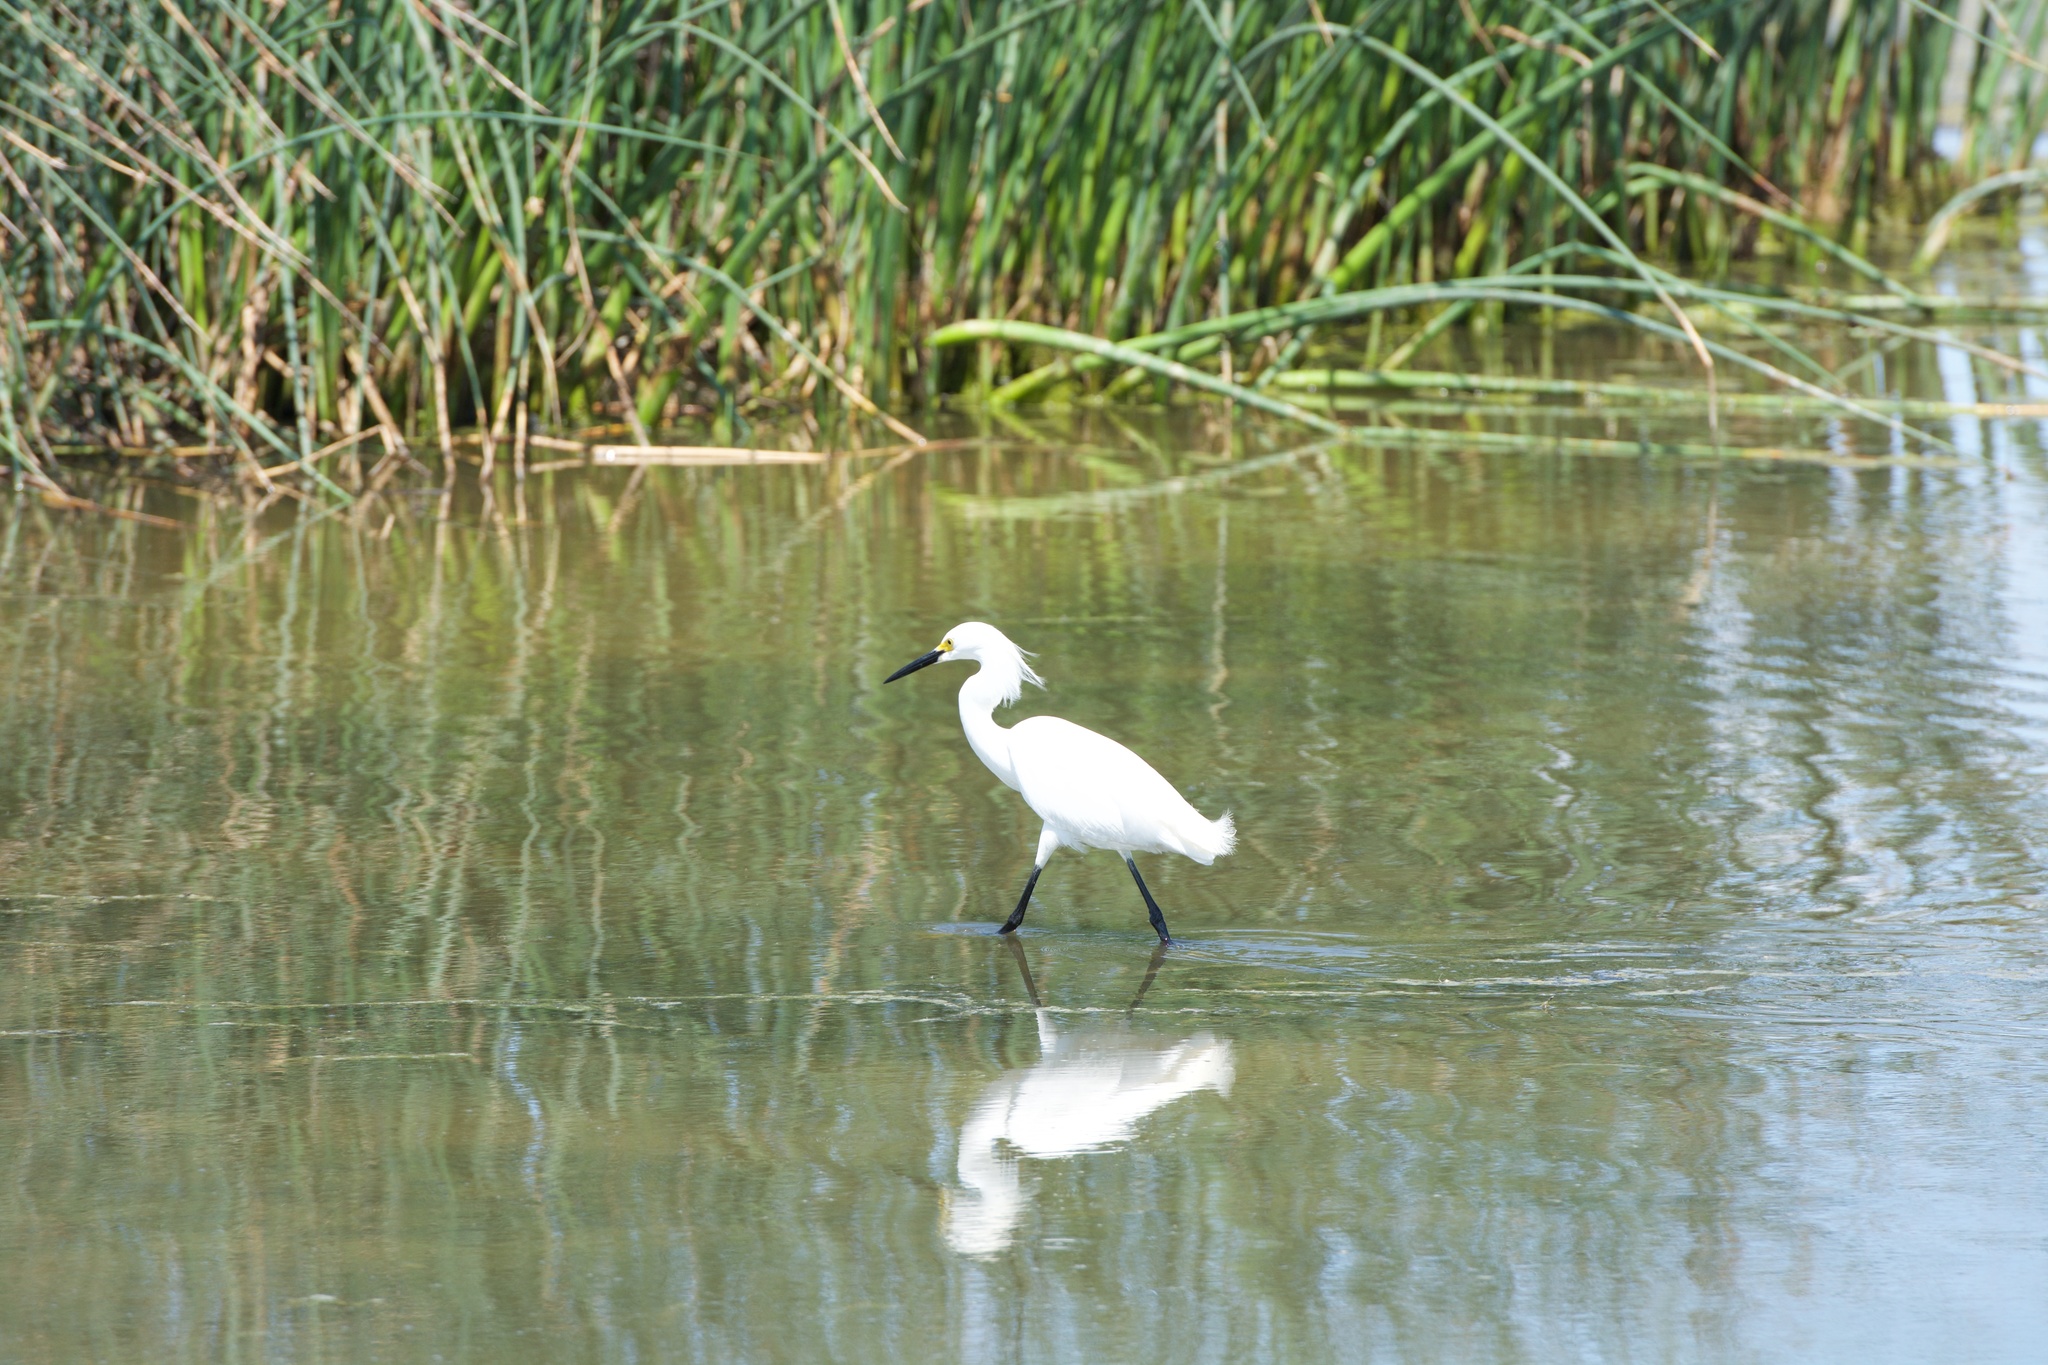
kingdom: Animalia
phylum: Chordata
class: Aves
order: Pelecaniformes
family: Ardeidae
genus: Egretta
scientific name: Egretta thula
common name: Snowy egret
